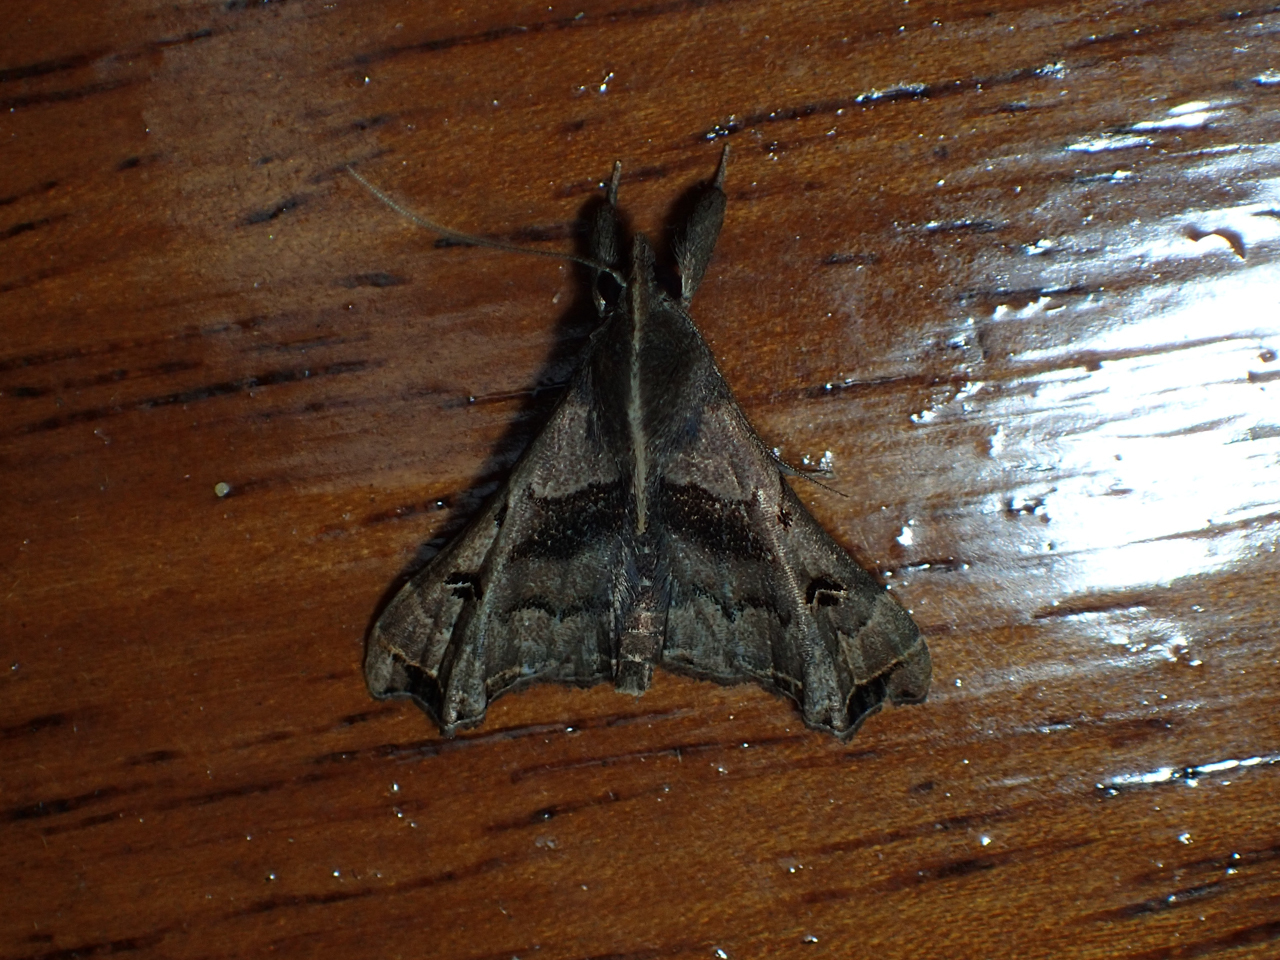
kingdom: Animalia
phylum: Arthropoda
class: Insecta
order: Lepidoptera
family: Erebidae
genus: Palthis
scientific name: Palthis asopialis
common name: Faint-spotted palthis moth
